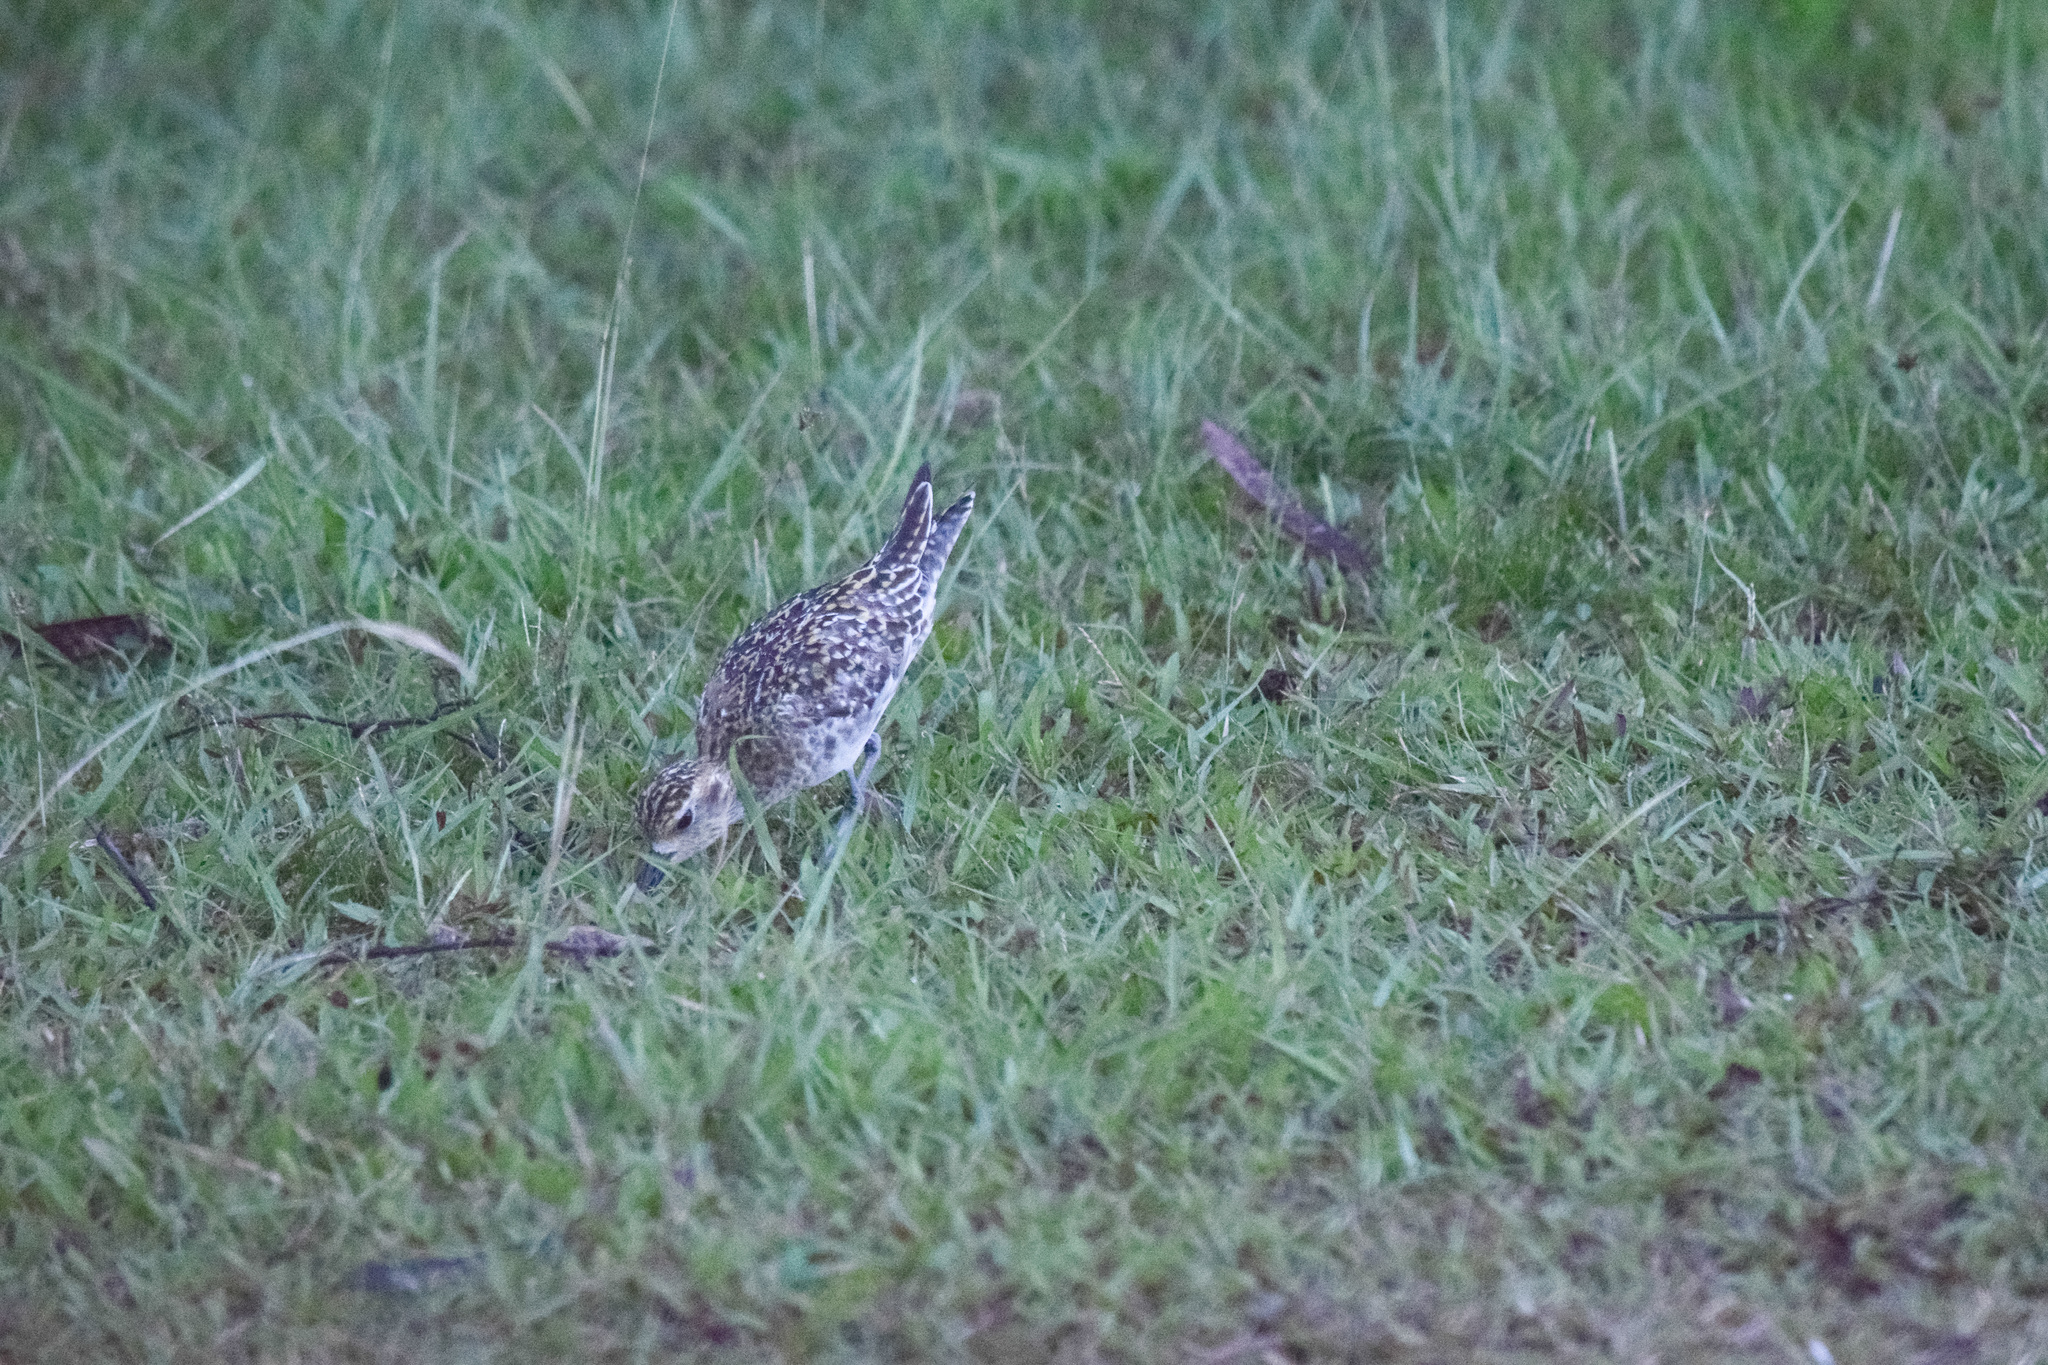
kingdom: Animalia
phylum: Chordata
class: Aves
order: Charadriiformes
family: Charadriidae
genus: Pluvialis
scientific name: Pluvialis fulva
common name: Pacific golden plover
